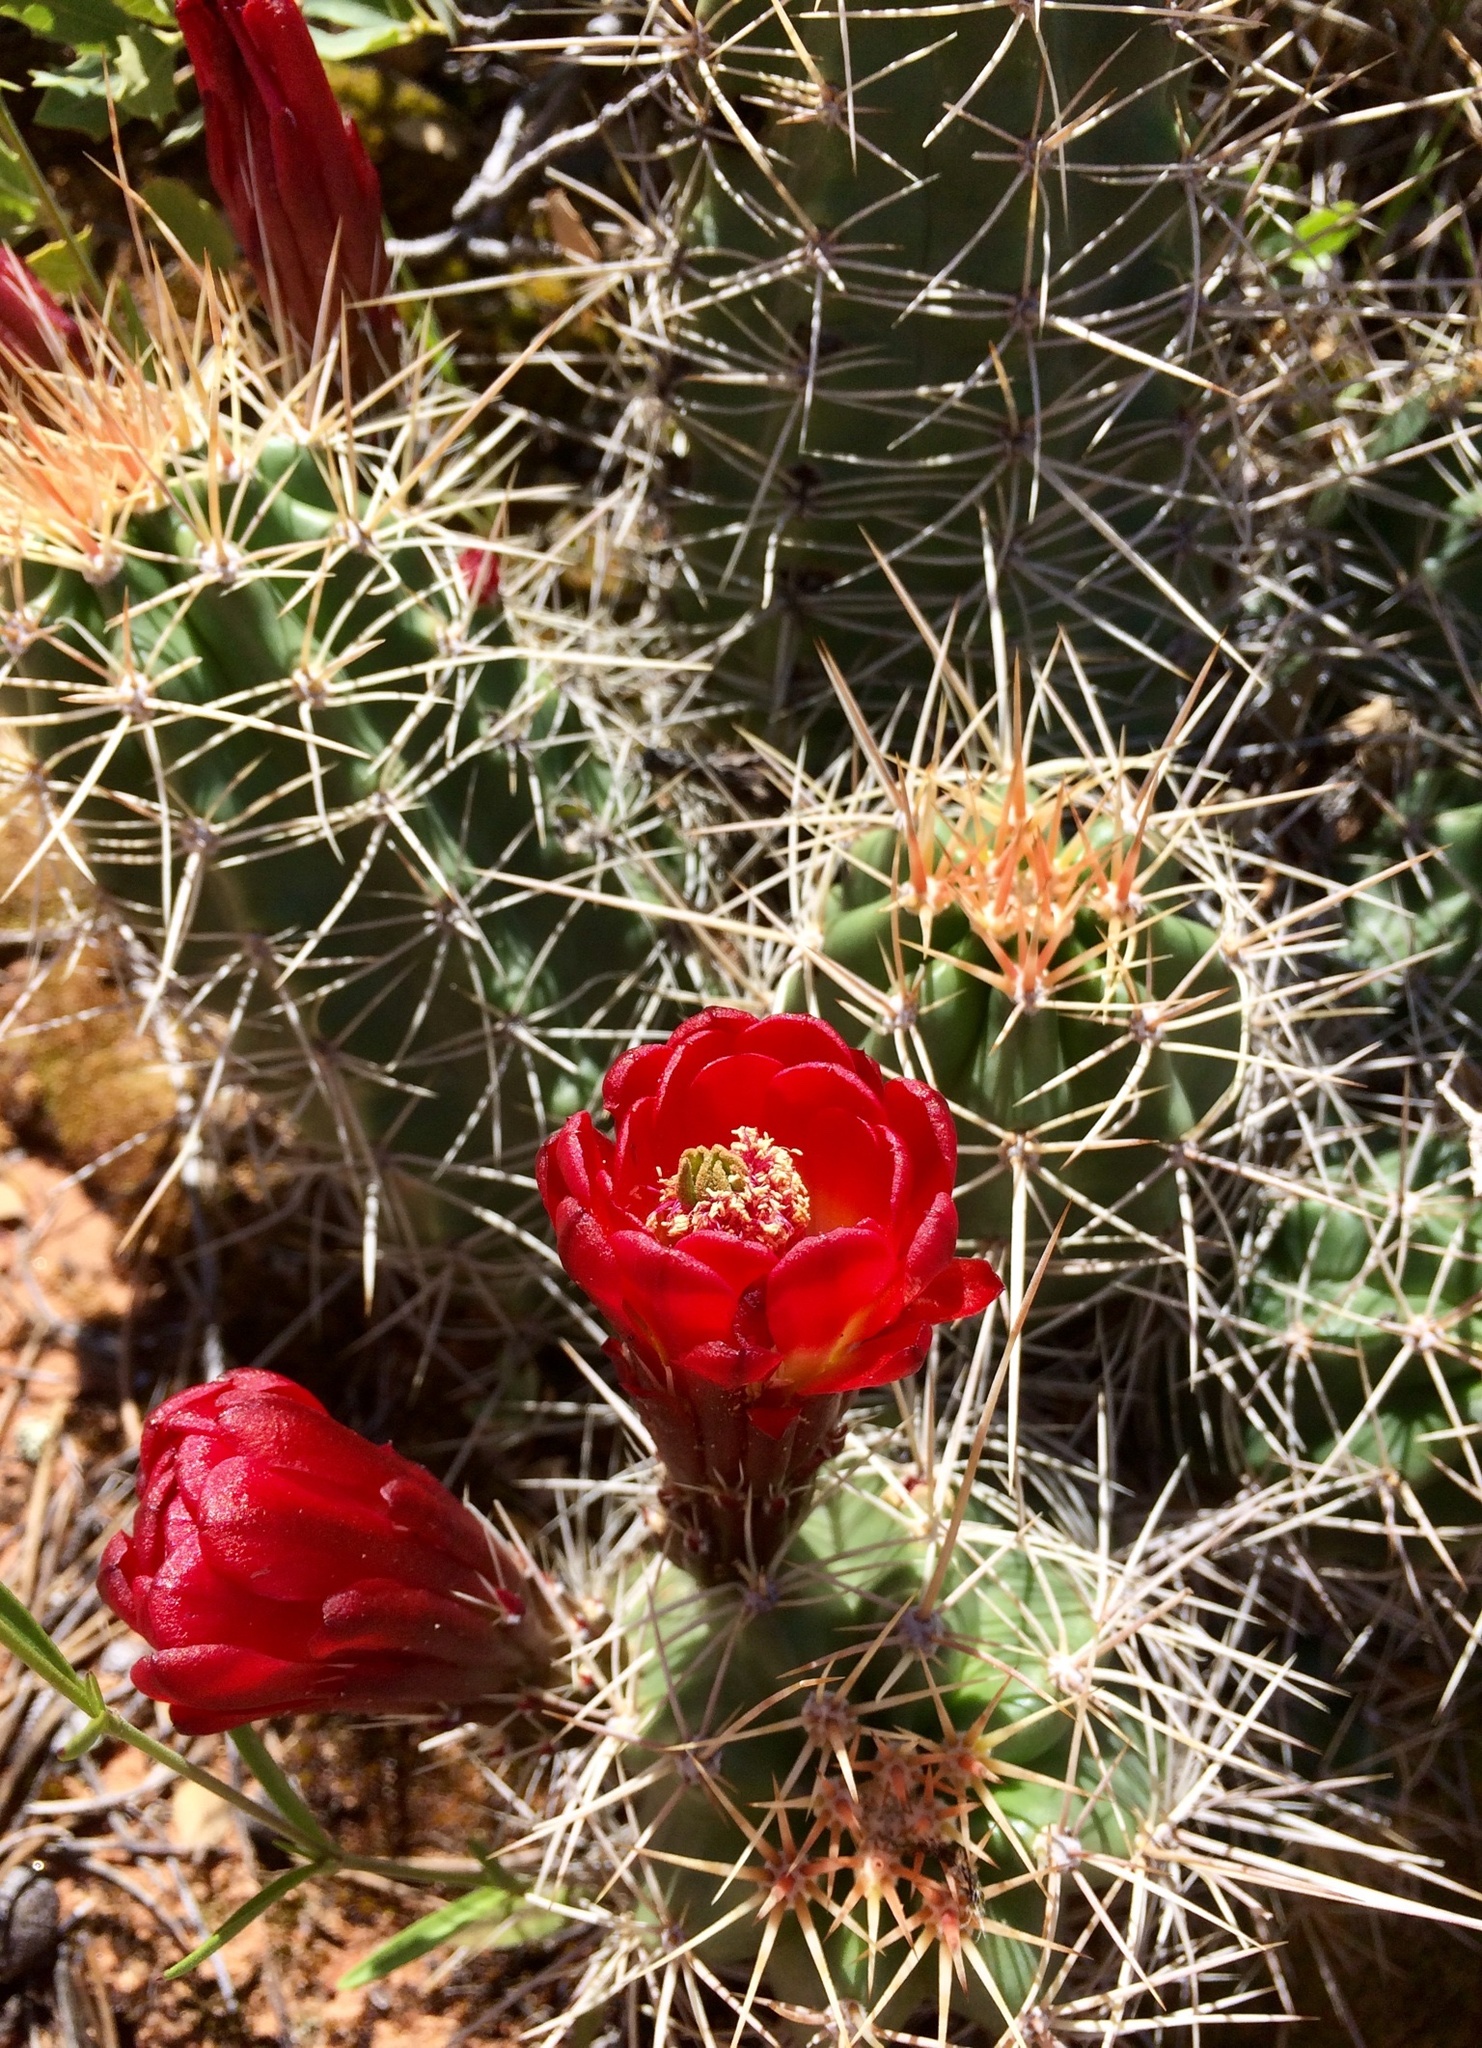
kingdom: Plantae
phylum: Tracheophyta
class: Magnoliopsida
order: Caryophyllales
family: Cactaceae
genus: Echinocereus
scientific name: Echinocereus triglochidiatus
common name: Claretcup hedgehog
